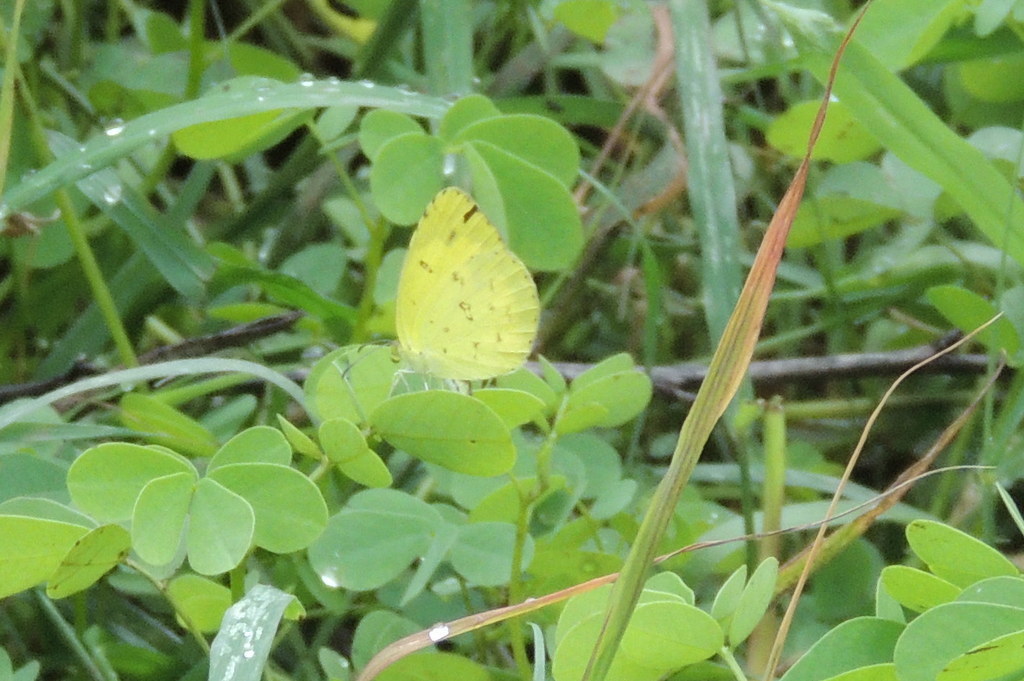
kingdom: Animalia
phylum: Arthropoda
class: Insecta
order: Lepidoptera
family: Pieridae
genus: Eurema
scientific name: Eurema hecabe
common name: Pale grass yellow
